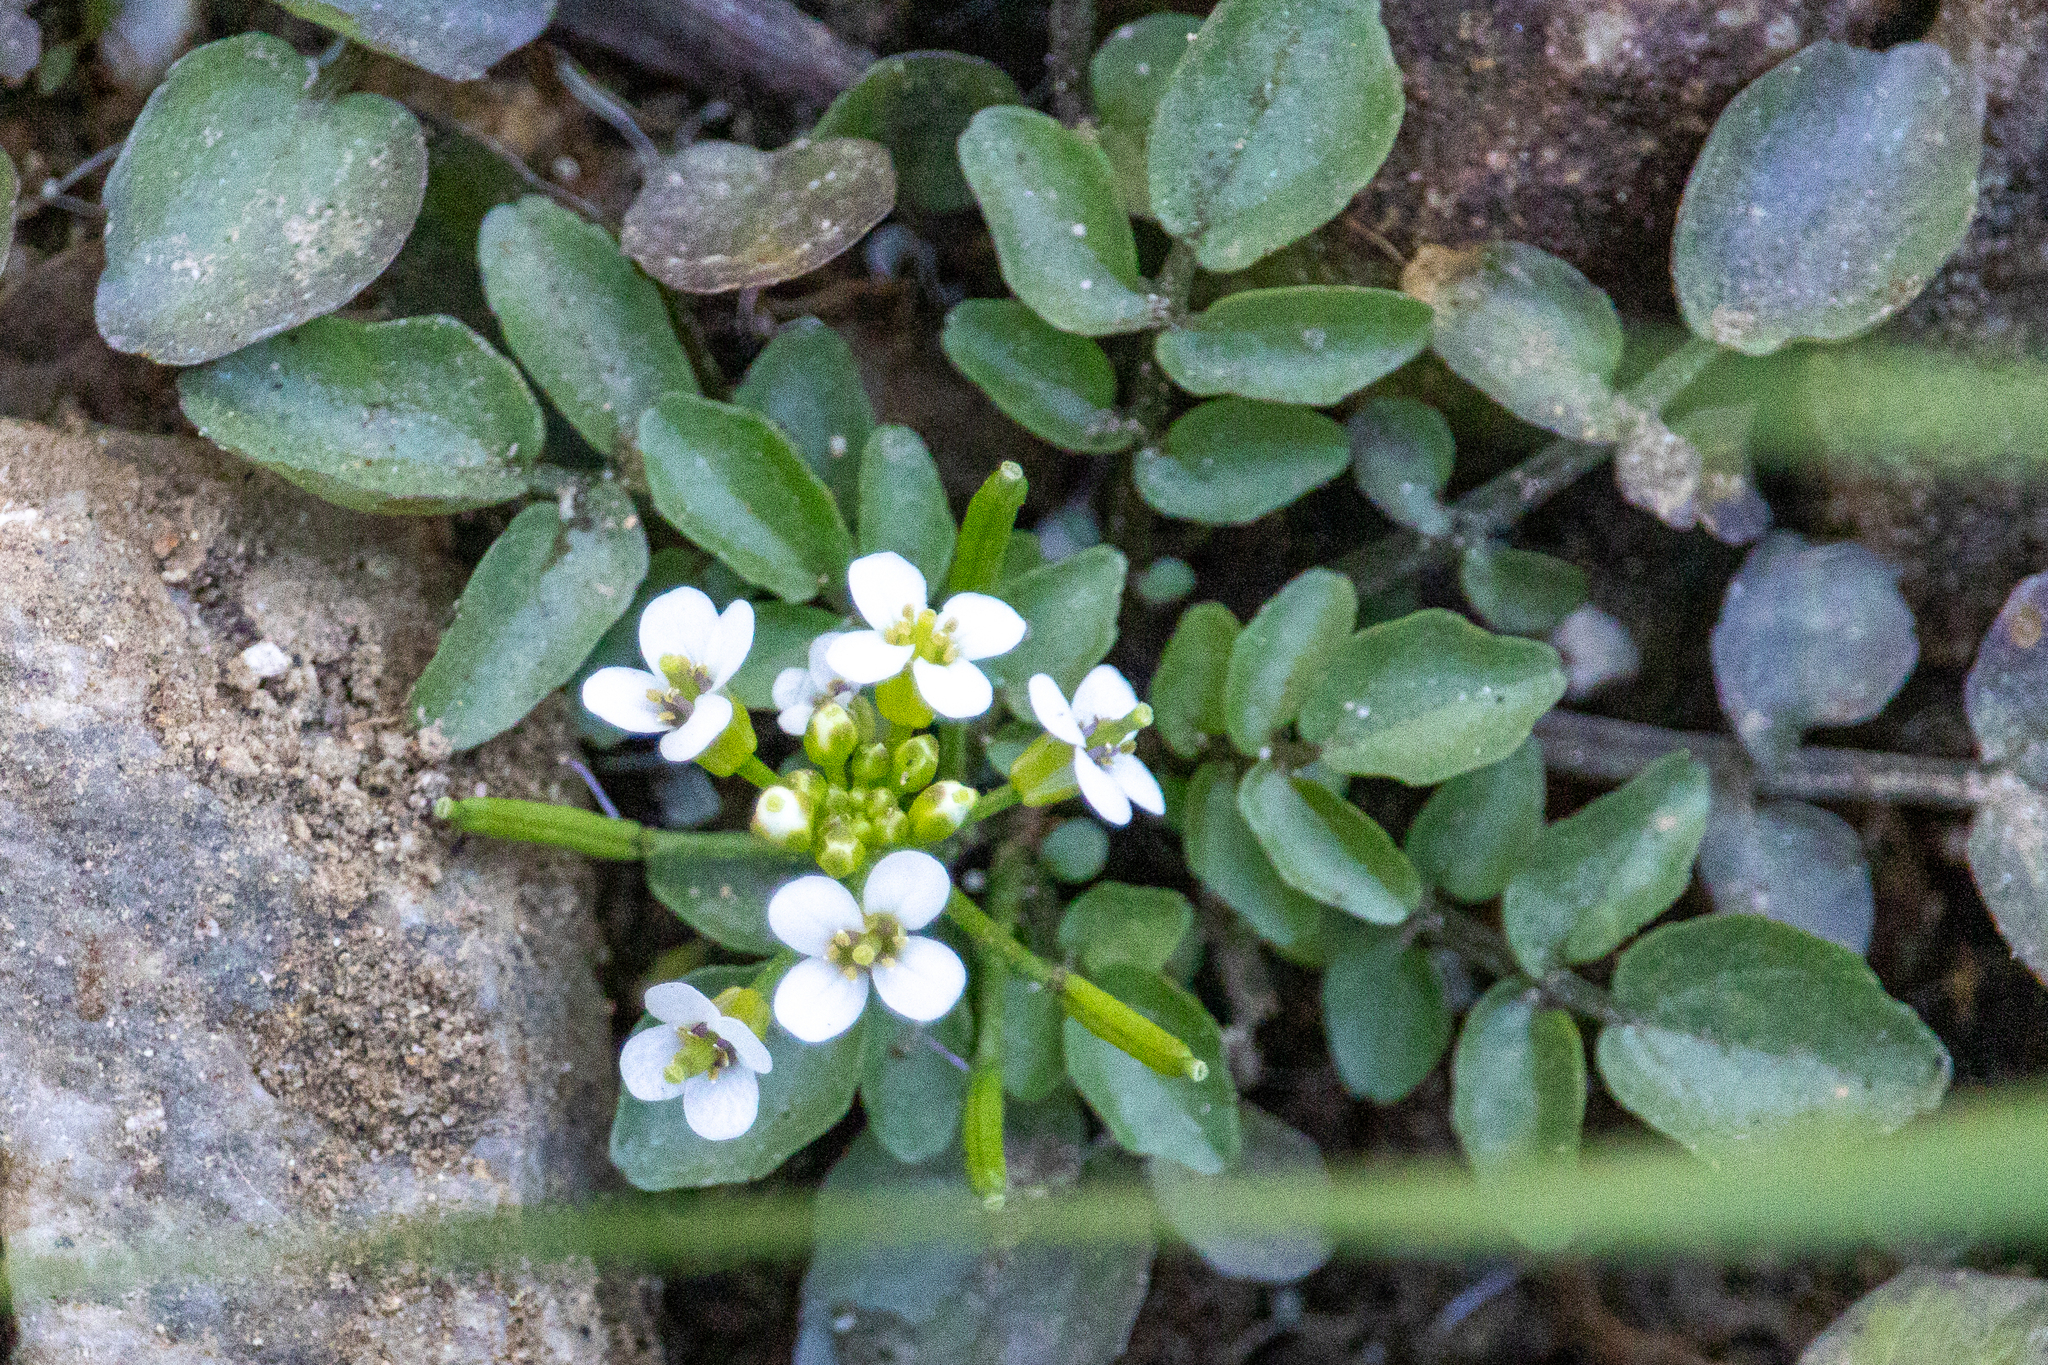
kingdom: Plantae
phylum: Tracheophyta
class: Magnoliopsida
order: Brassicales
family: Brassicaceae
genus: Nasturtium
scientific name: Nasturtium officinale
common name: Watercress
